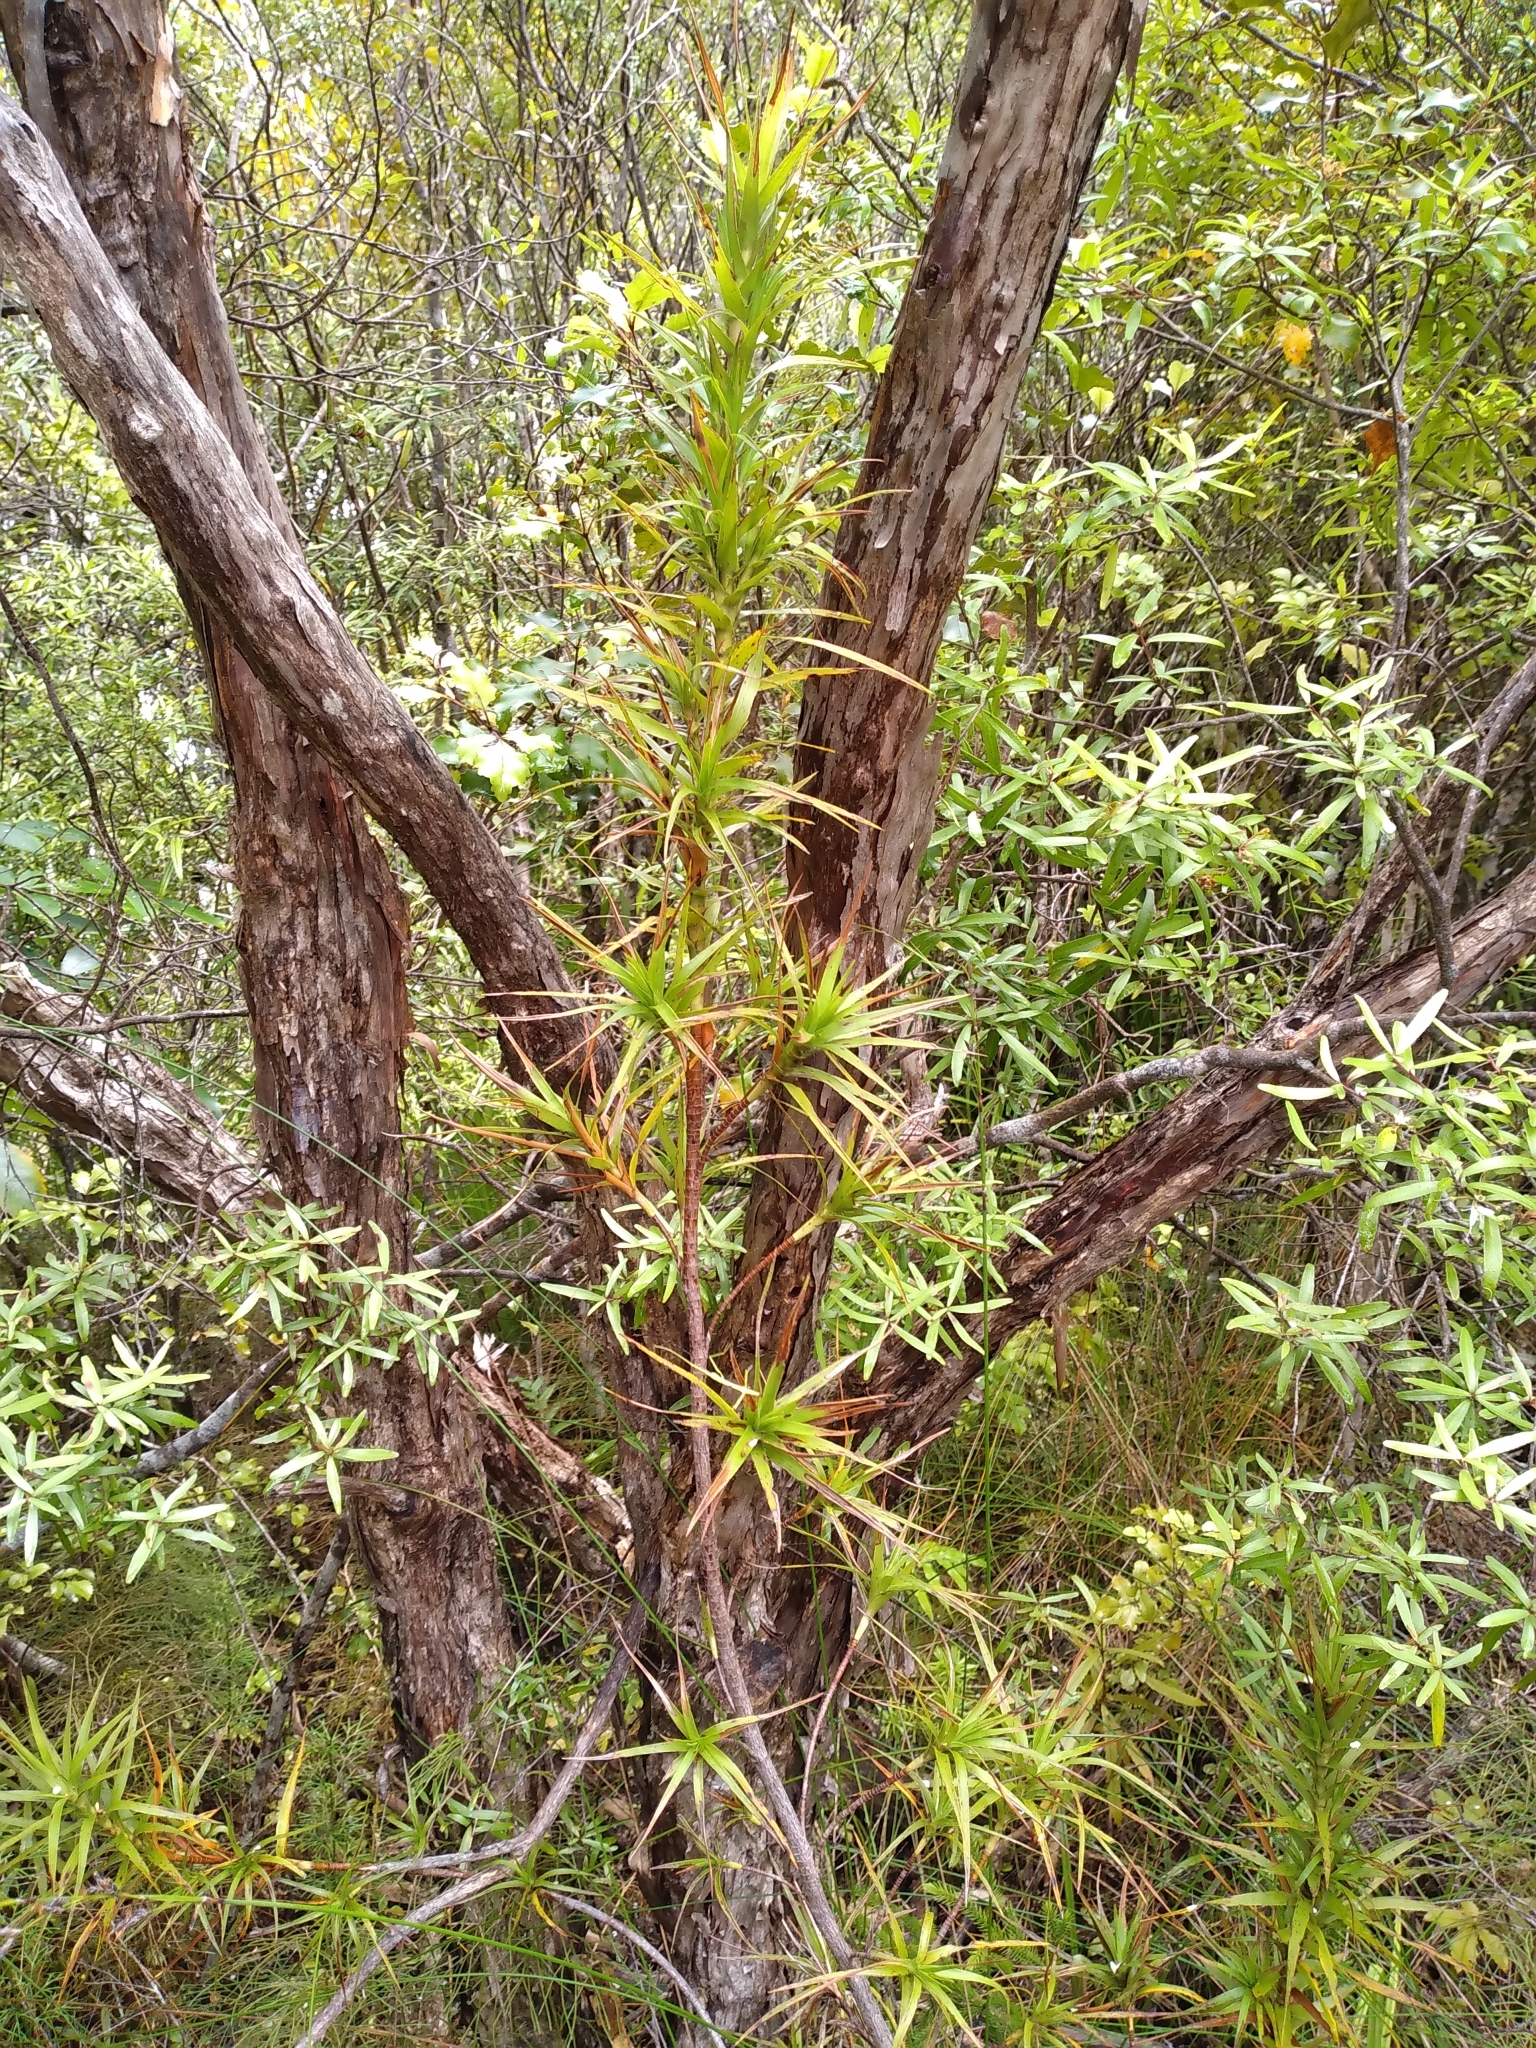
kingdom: Plantae
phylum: Tracheophyta
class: Magnoliopsida
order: Ericales
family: Ericaceae
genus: Dracophyllum
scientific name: Dracophyllum sinclairii
